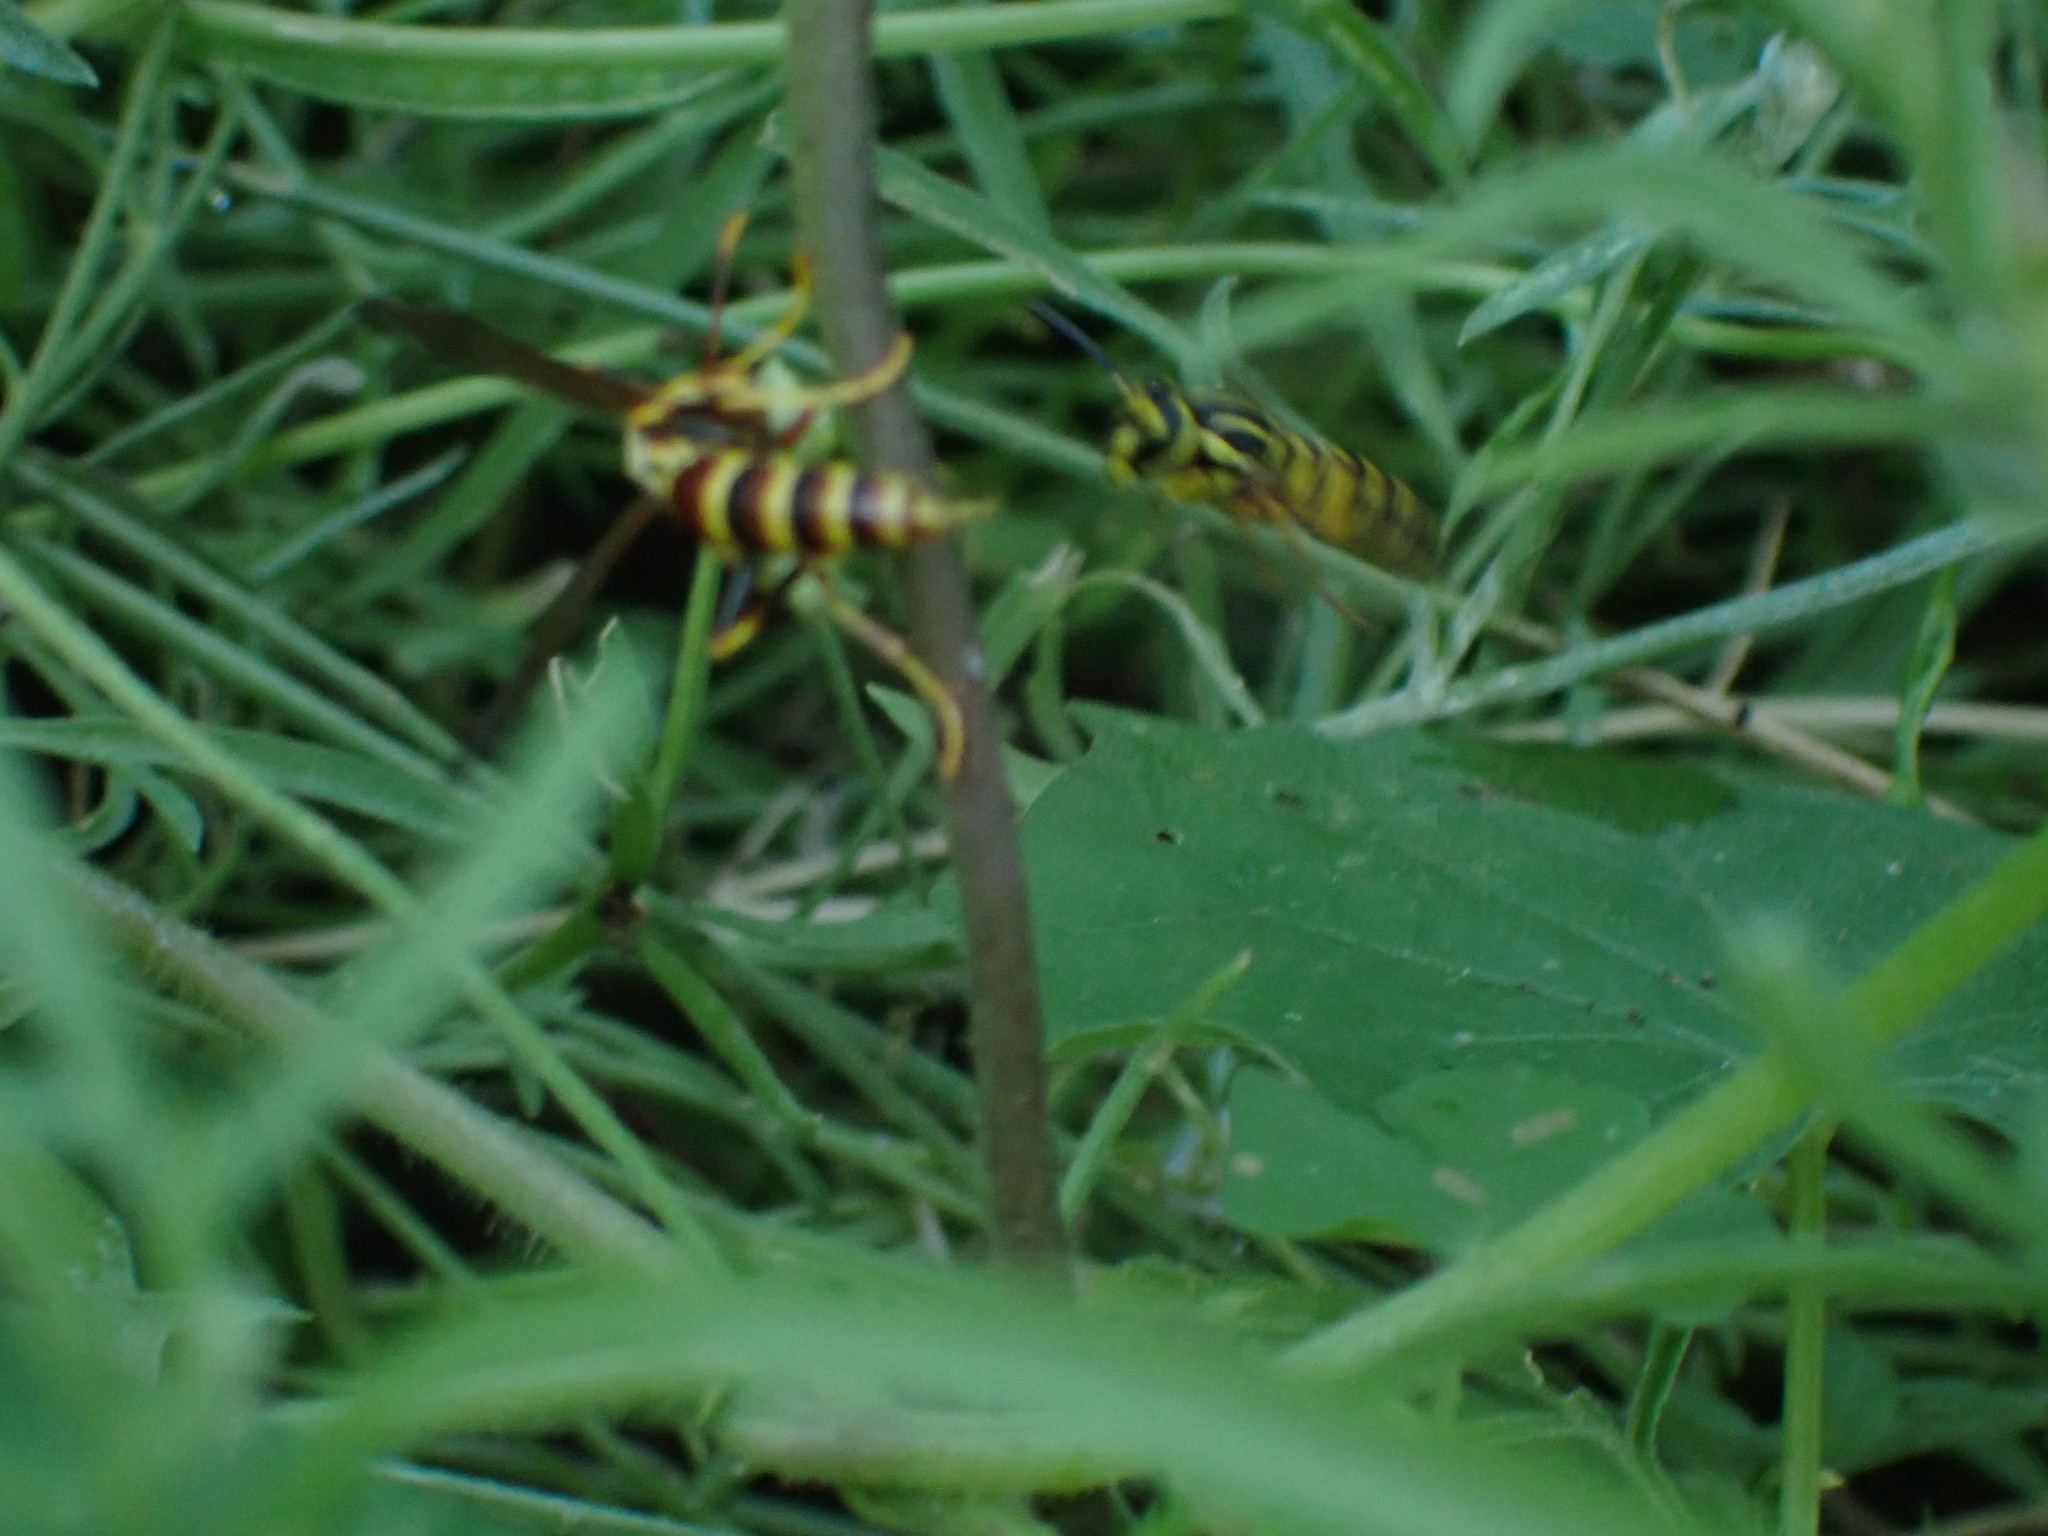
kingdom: Animalia
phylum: Arthropoda
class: Insecta
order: Hymenoptera
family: Vespidae
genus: Vespula
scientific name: Vespula squamosa
